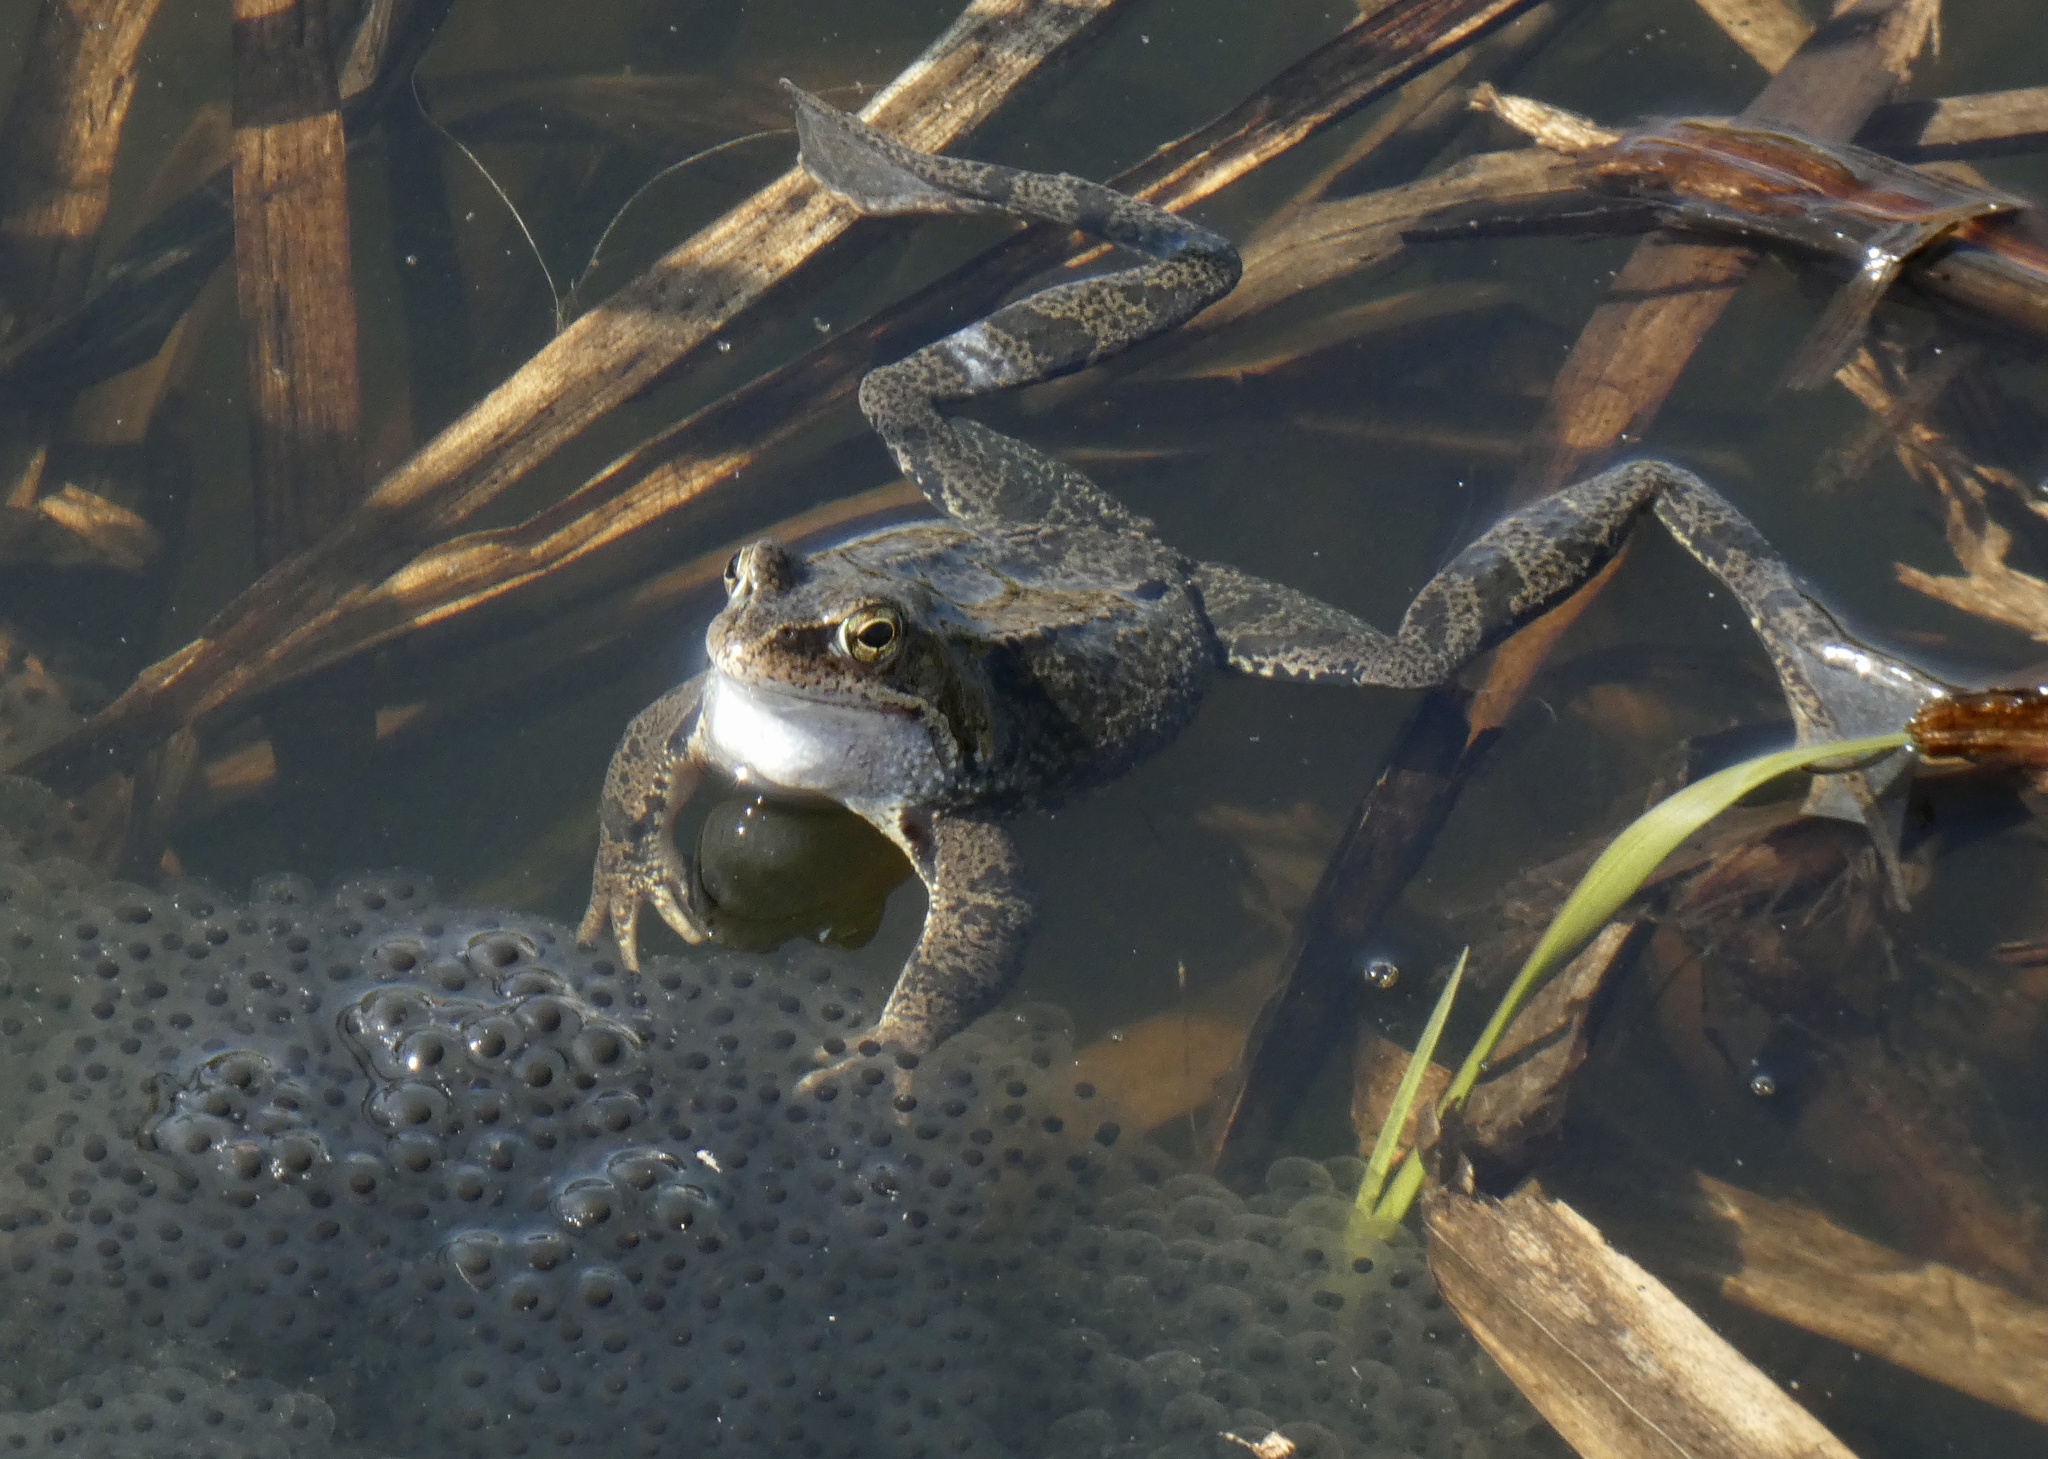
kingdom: Animalia
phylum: Chordata
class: Amphibia
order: Anura
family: Ranidae
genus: Rana
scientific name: Rana temporaria
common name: Common frog
